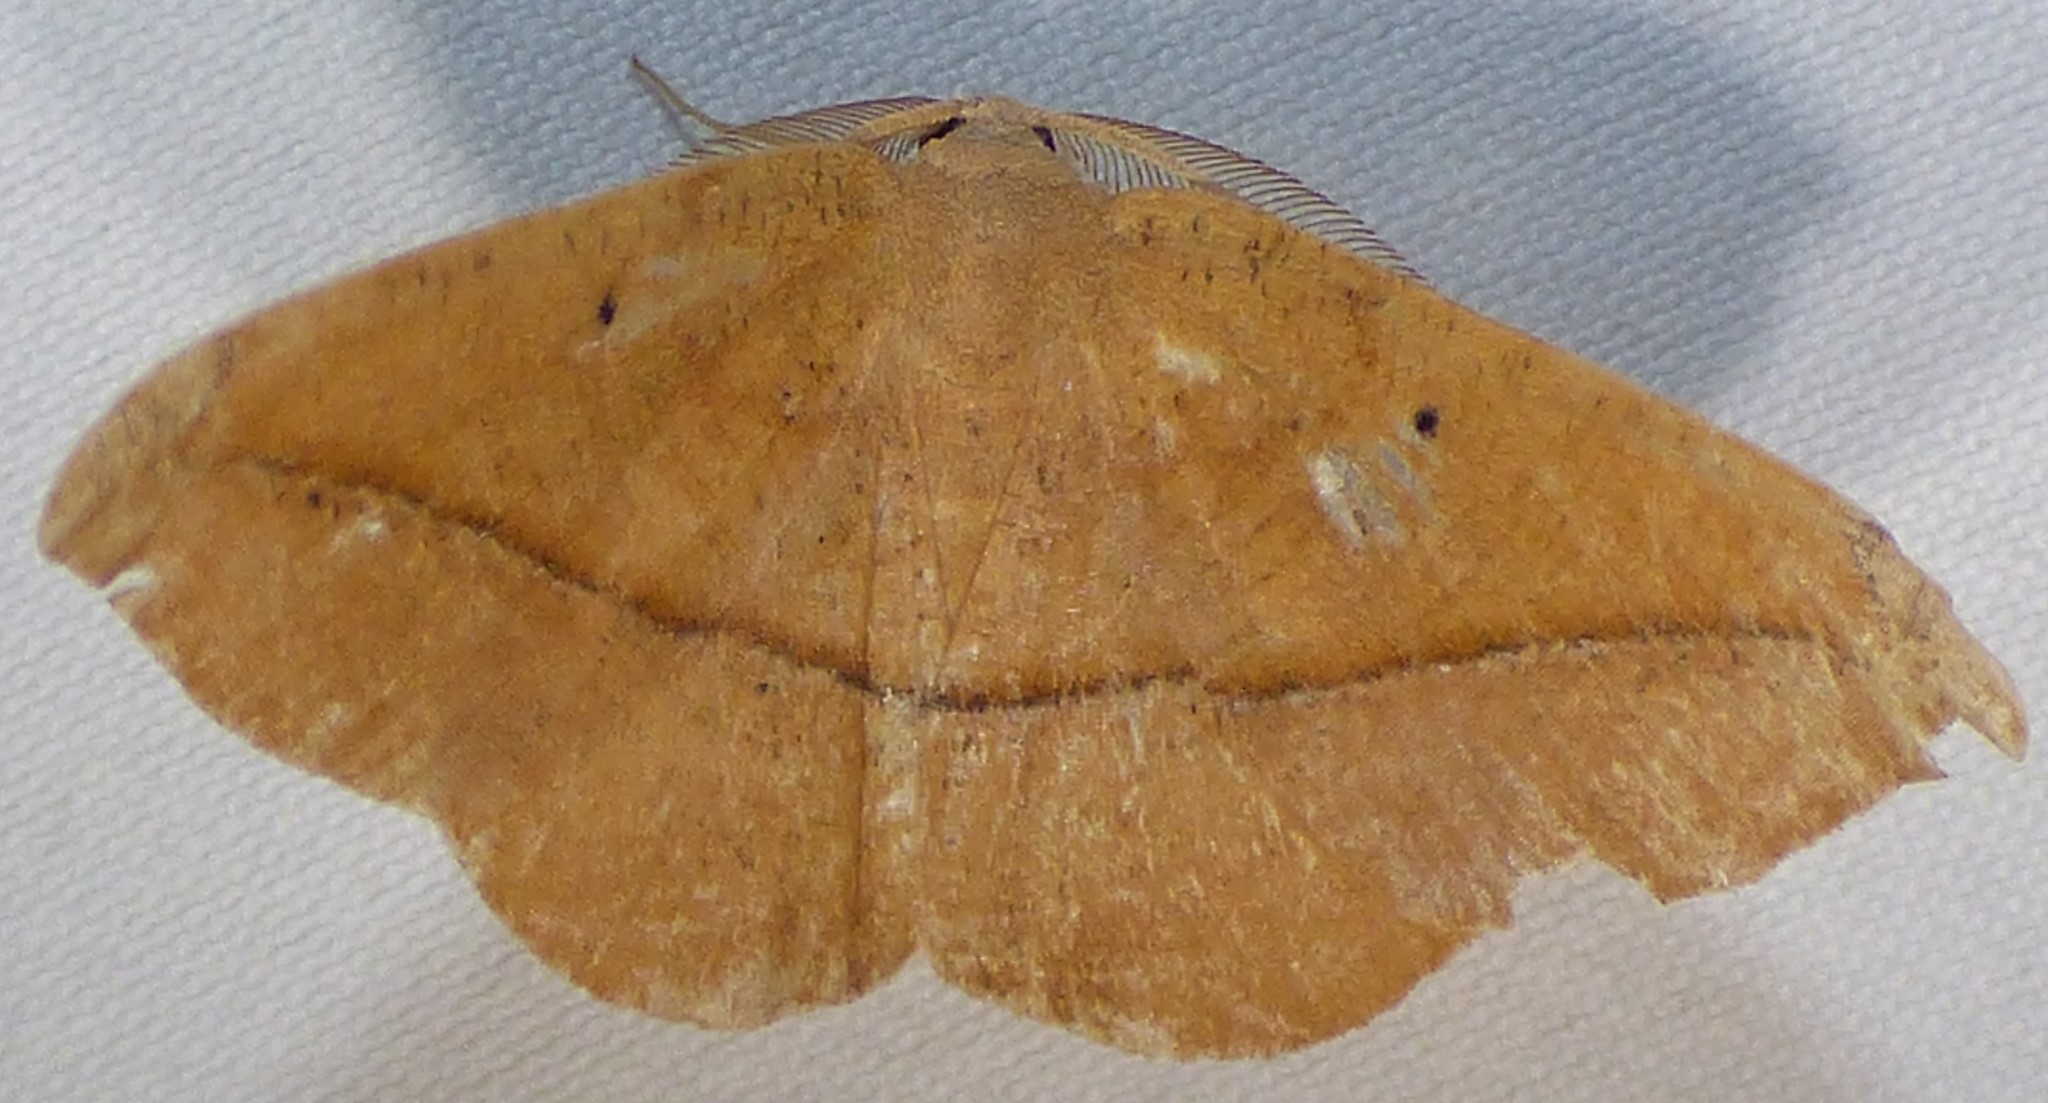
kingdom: Animalia
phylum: Arthropoda
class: Insecta
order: Lepidoptera
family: Geometridae
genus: Patalene
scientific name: Patalene olyzonaria
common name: Juniper geometer moth
